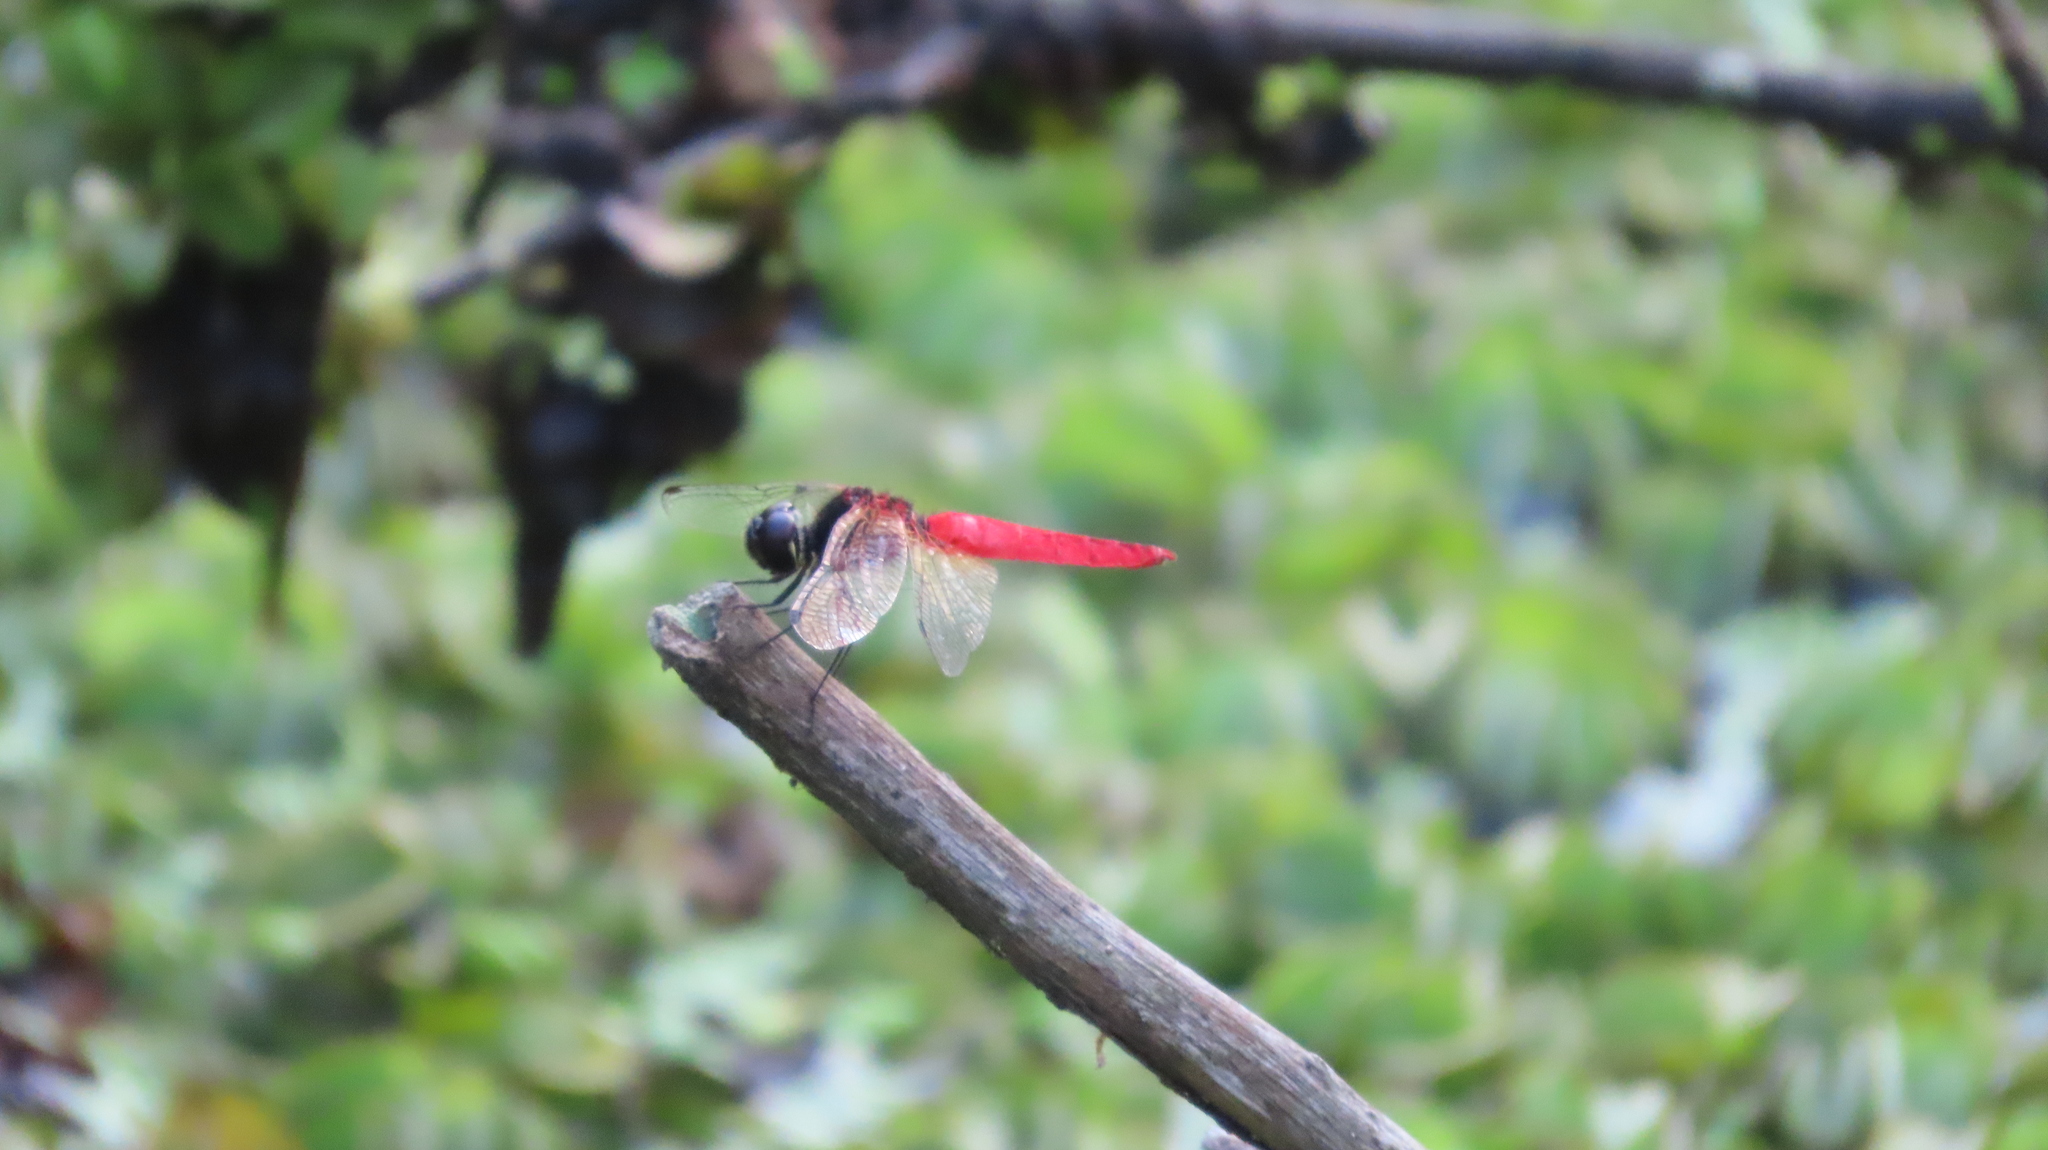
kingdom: Animalia
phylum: Arthropoda
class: Insecta
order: Odonata
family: Libellulidae
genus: Aethriamanta
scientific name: Aethriamanta brevipennis
